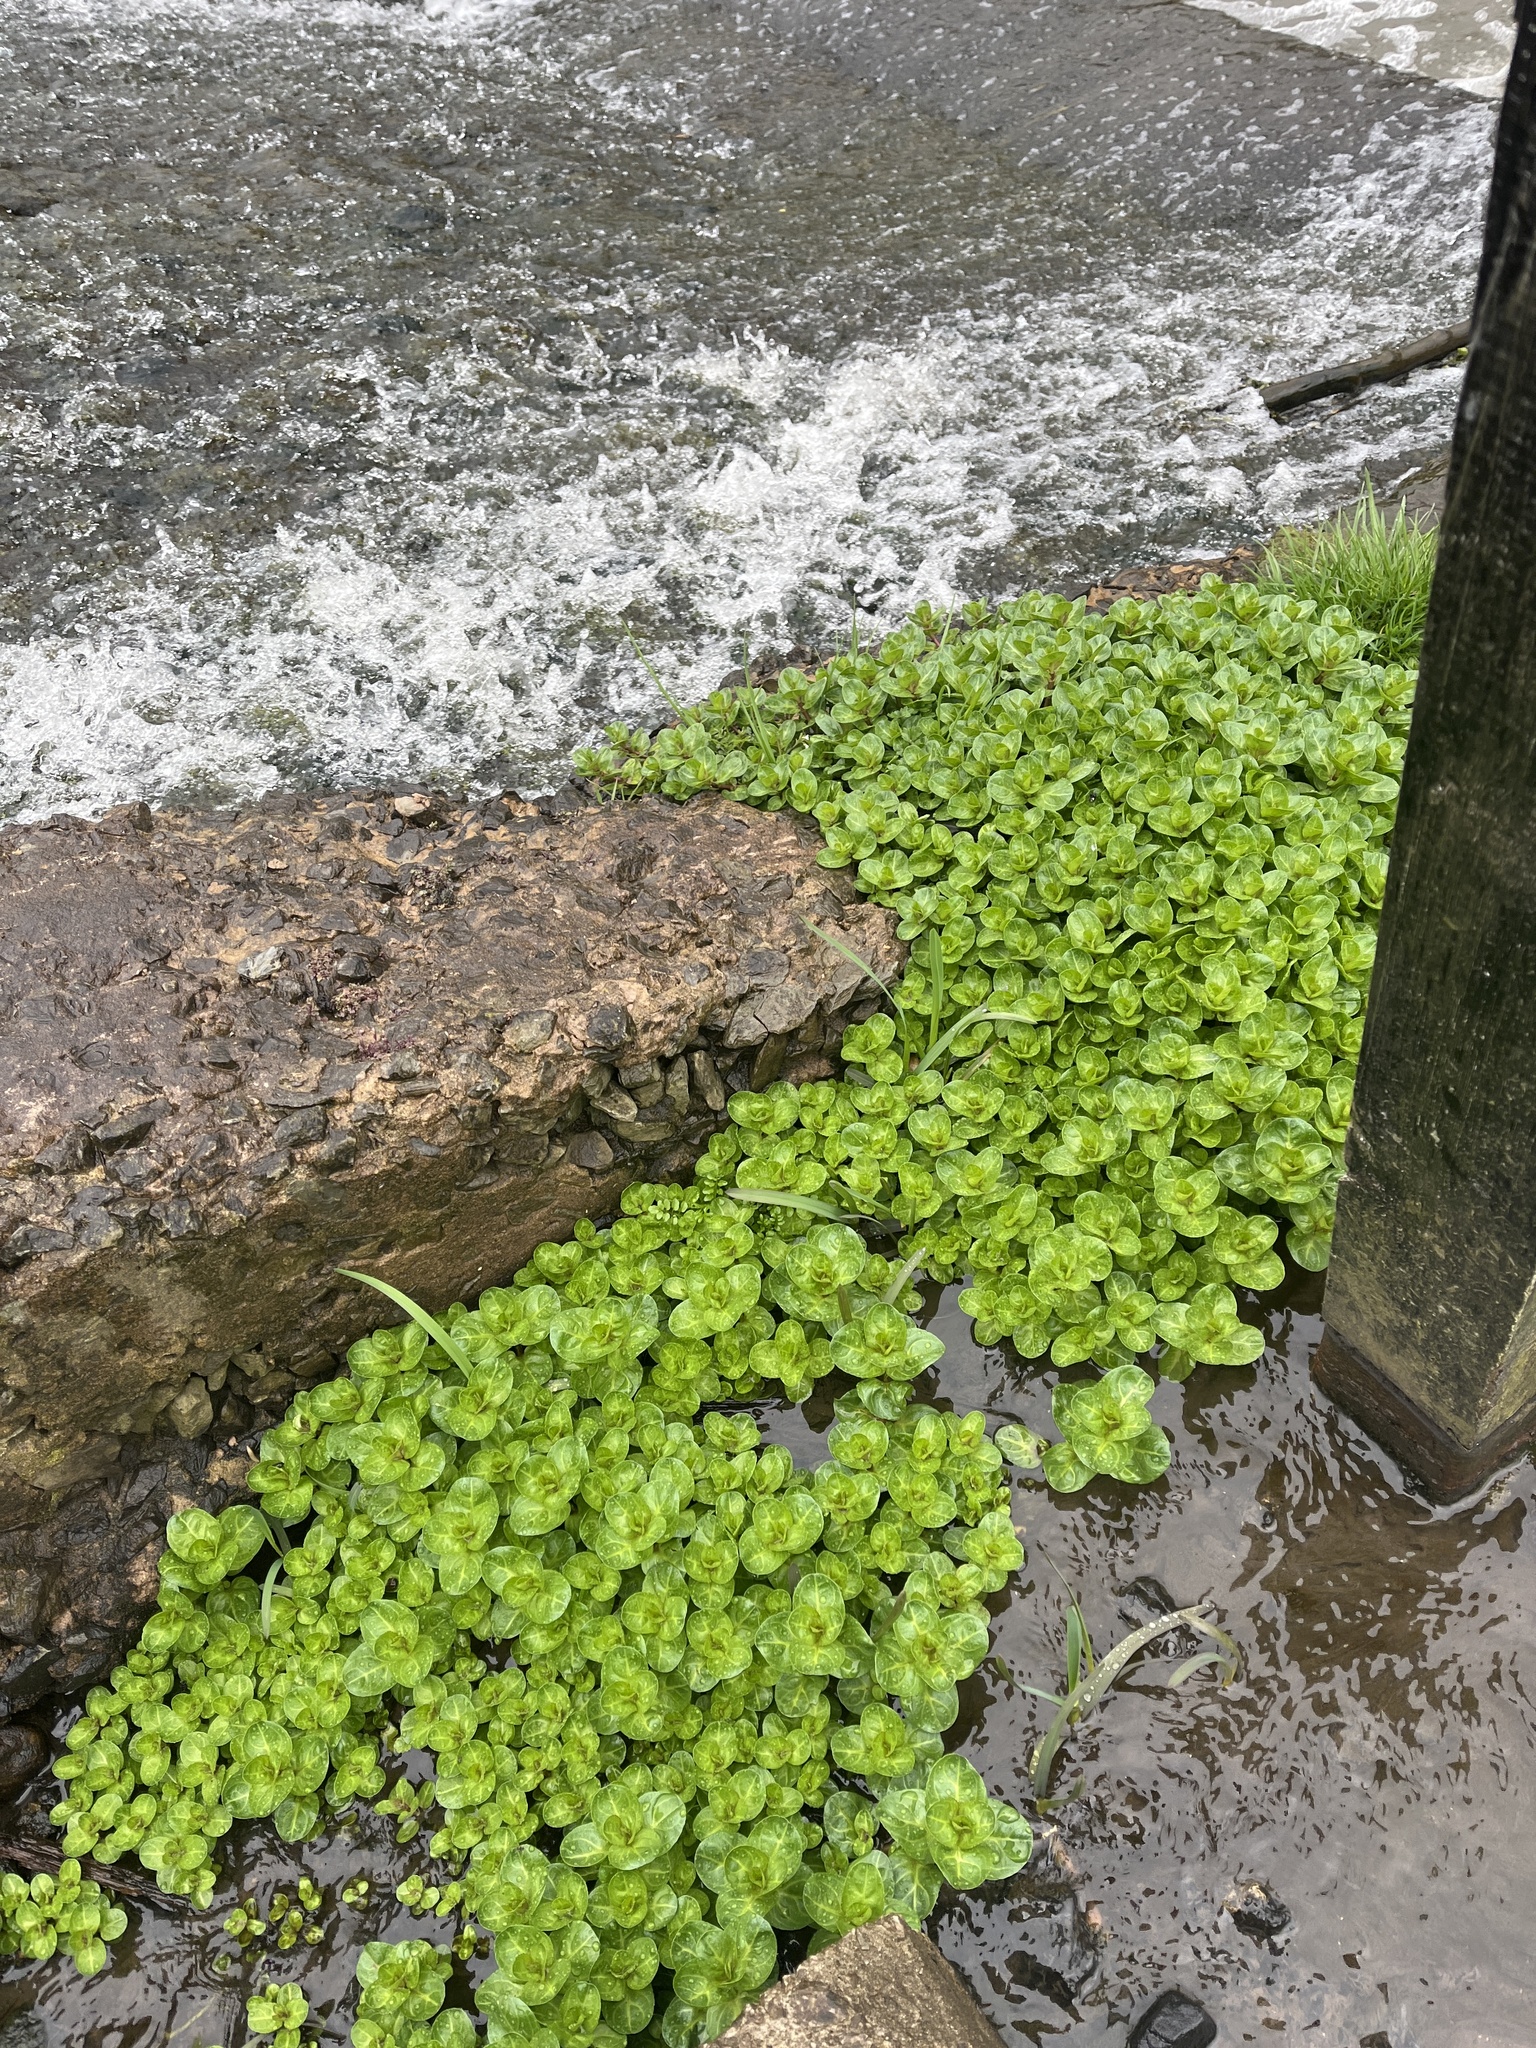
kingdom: Plantae
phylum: Tracheophyta
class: Magnoliopsida
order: Lamiales
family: Plantaginaceae
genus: Veronica
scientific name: Veronica beccabunga
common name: Brooklime
